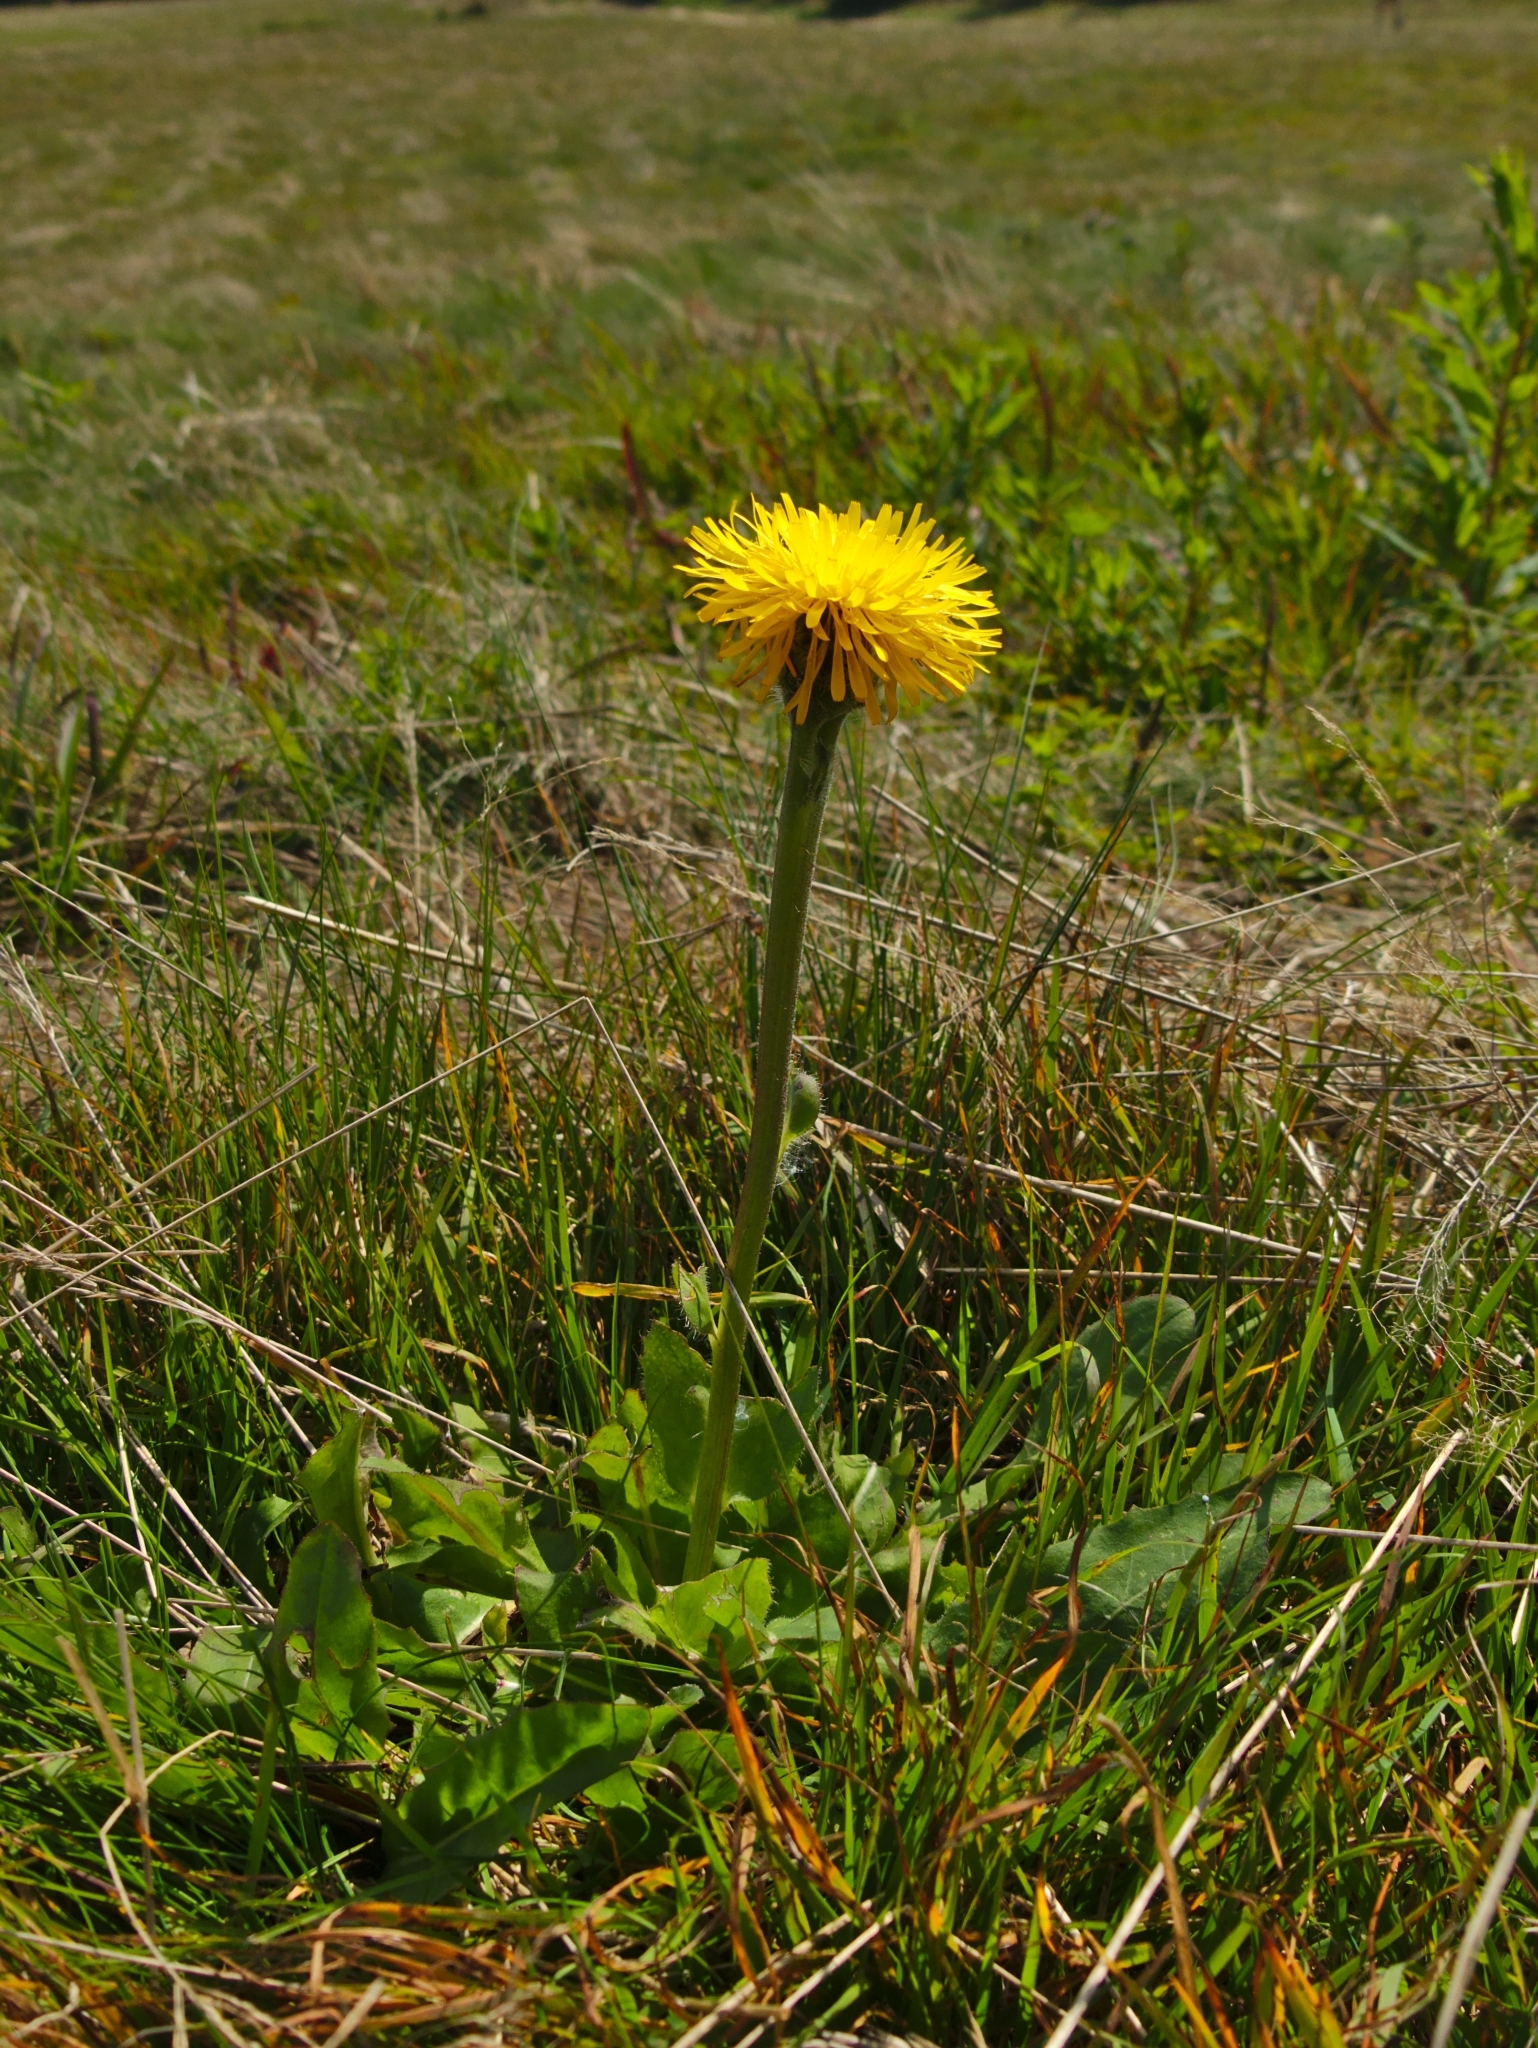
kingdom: Plantae
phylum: Tracheophyta
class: Magnoliopsida
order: Asterales
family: Asteraceae
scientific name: Asteraceae
